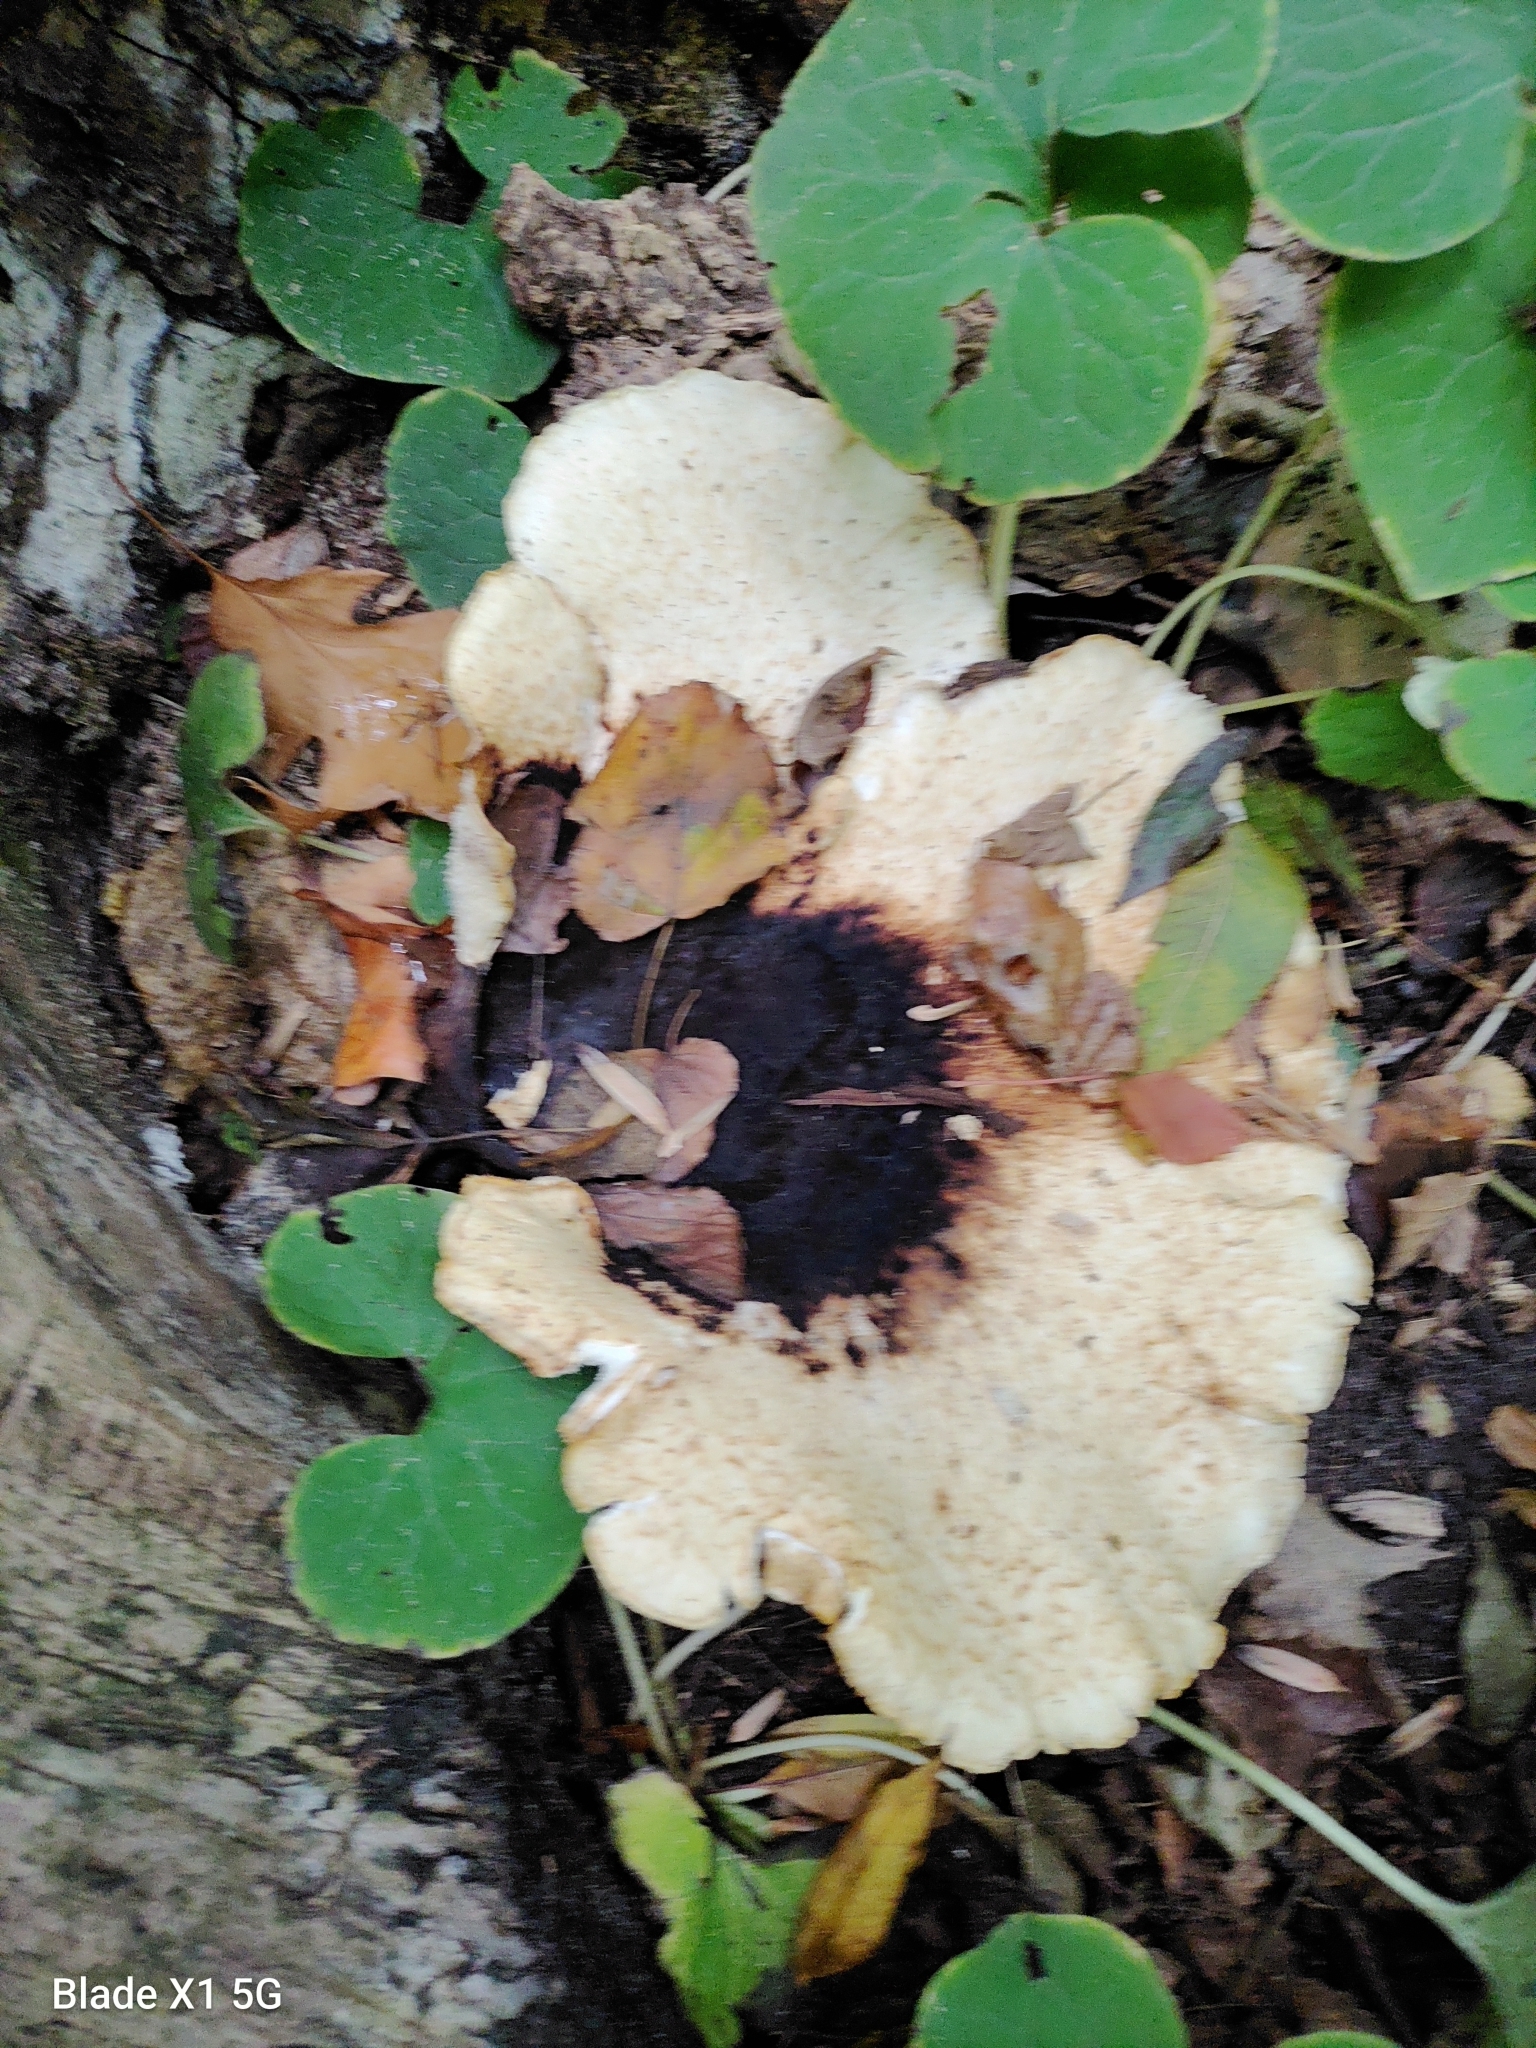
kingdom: Fungi
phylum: Basidiomycota
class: Agaricomycetes
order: Polyporales
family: Polyporaceae
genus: Cerioporus
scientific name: Cerioporus squamosus
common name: Dryad's saddle
